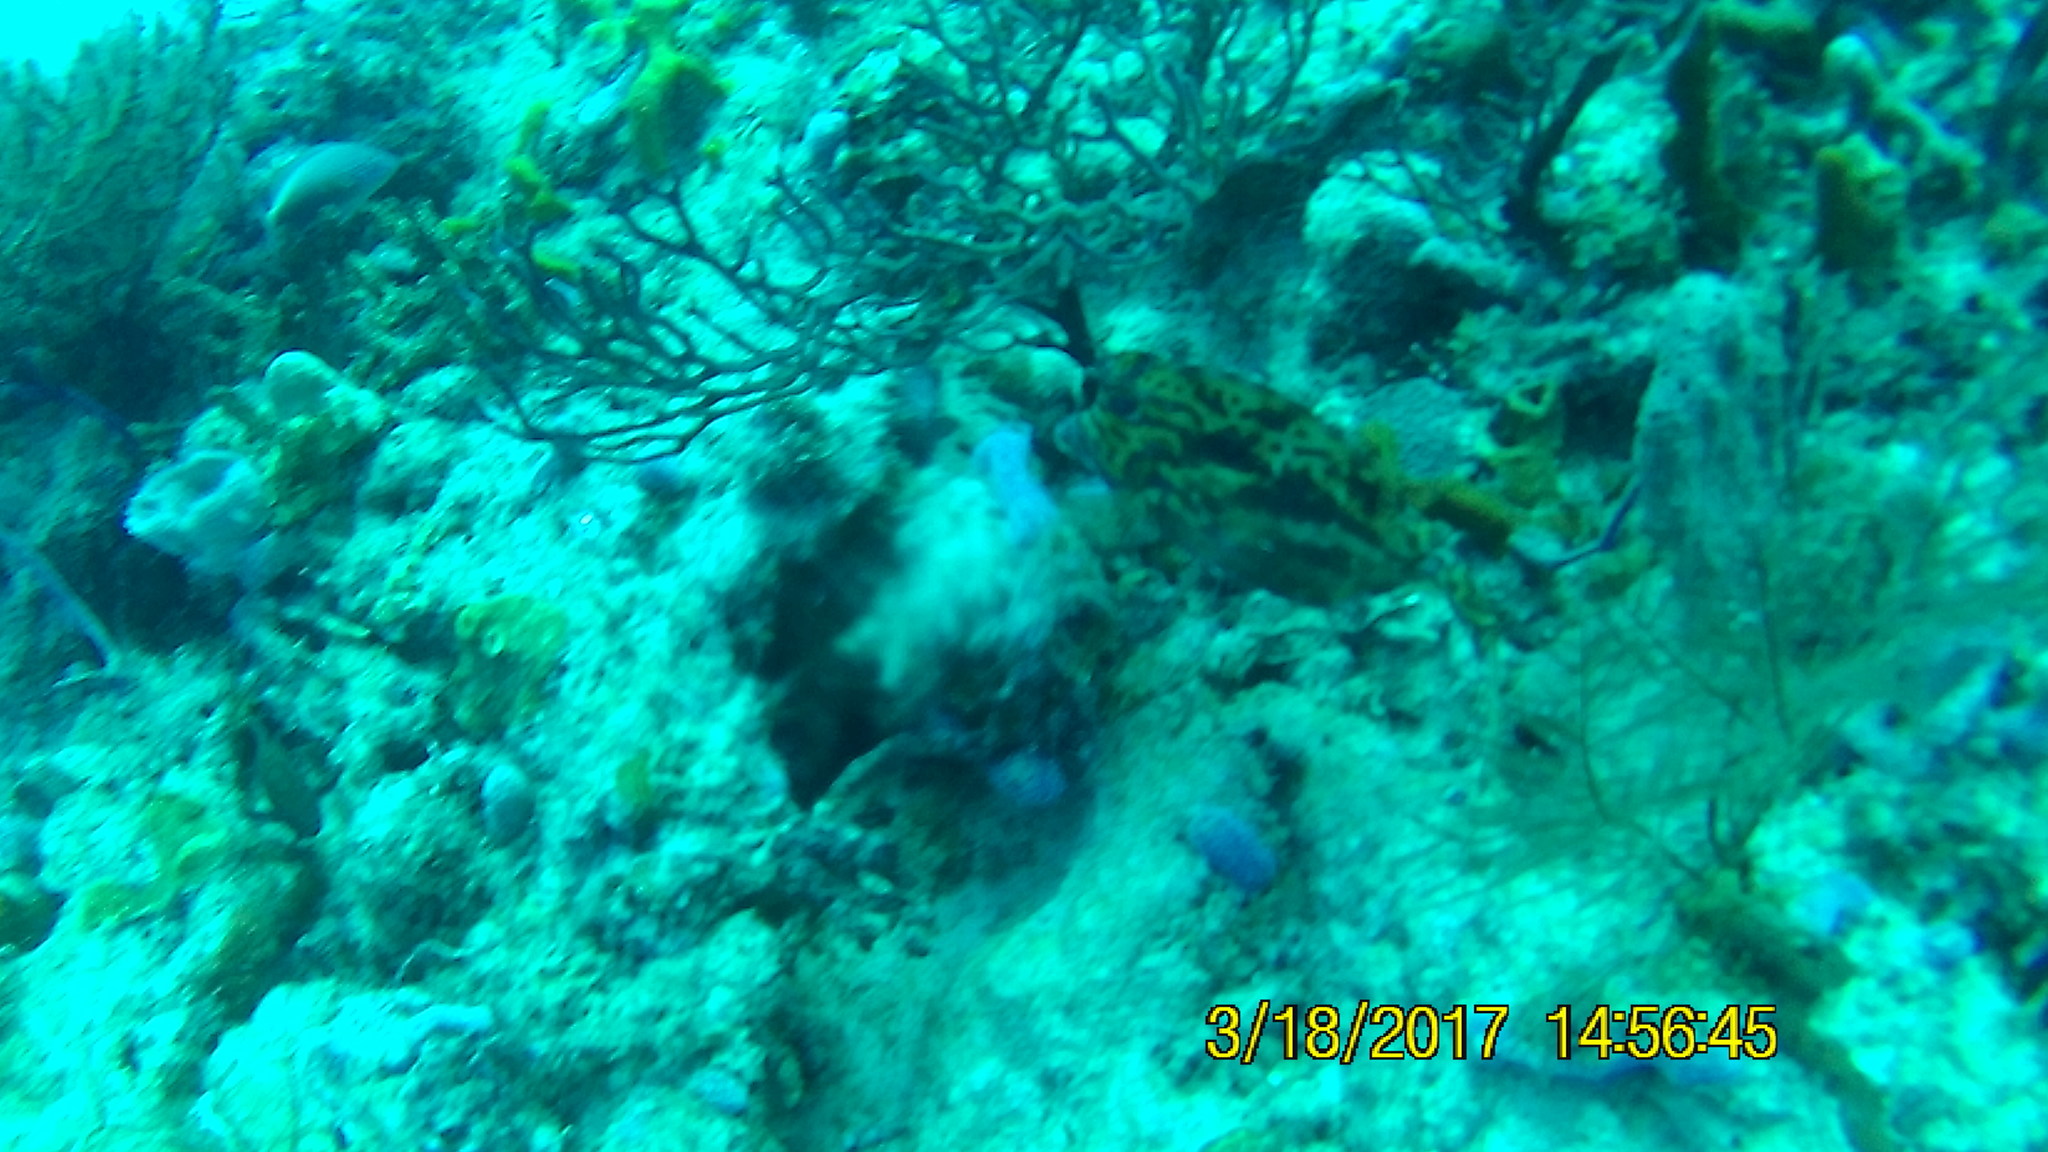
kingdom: Animalia
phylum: Chordata
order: Tetraodontiformes
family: Ostraciidae
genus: Acanthostracion
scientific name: Acanthostracion quadricornis
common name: Scrawled cowfish
